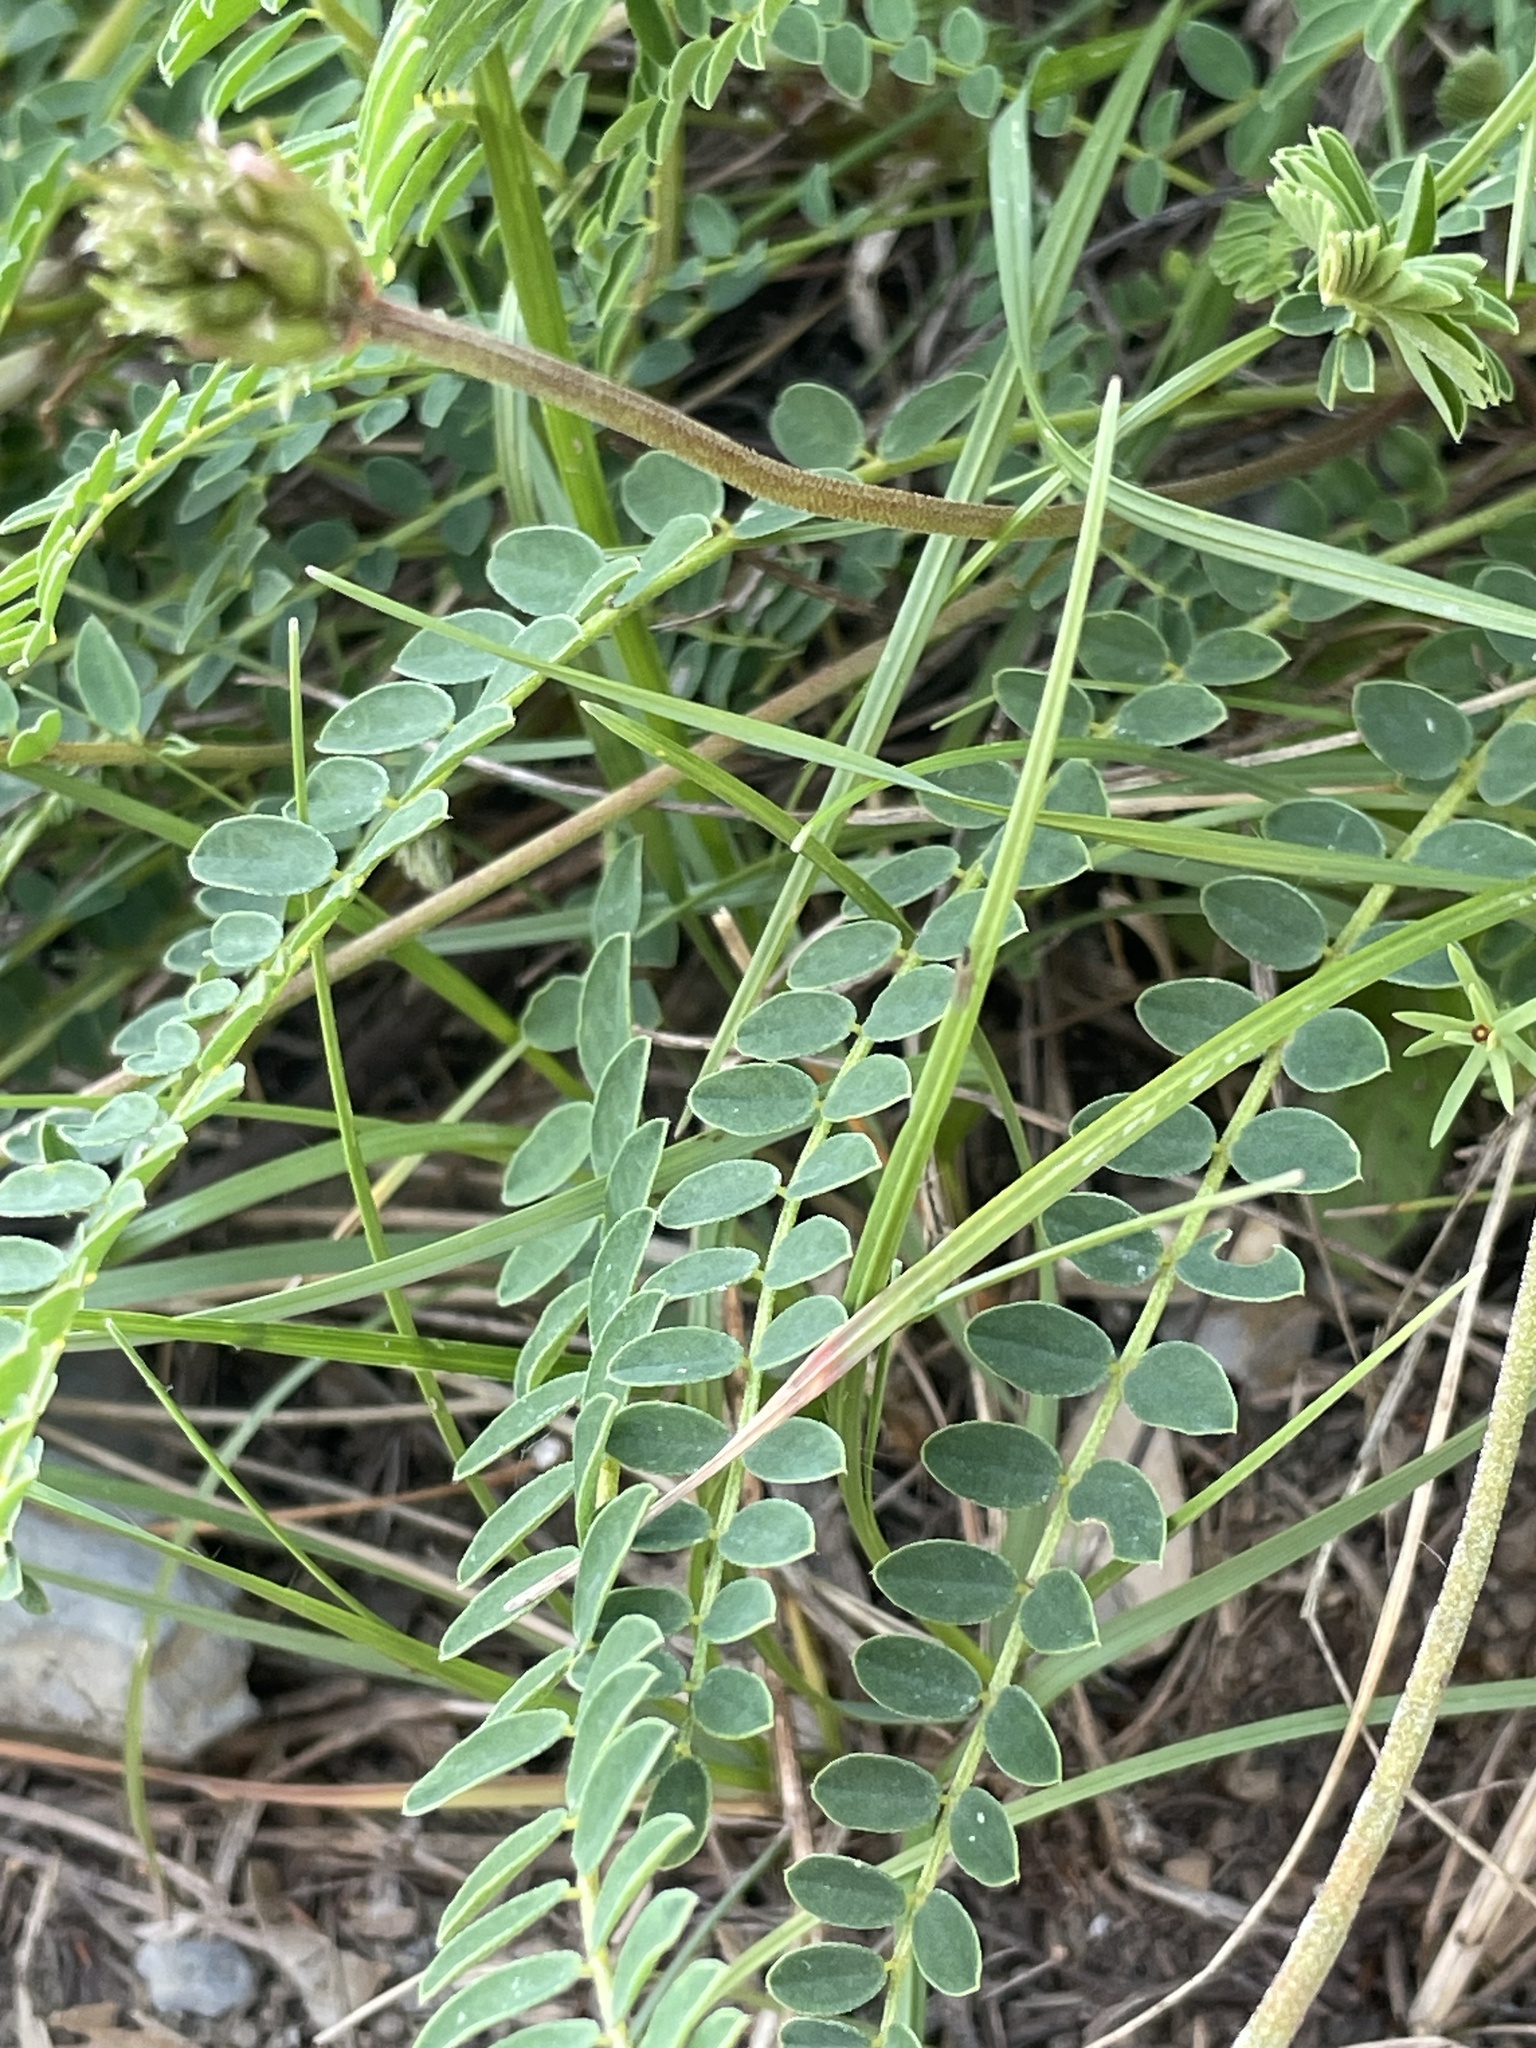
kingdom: Plantae
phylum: Tracheophyta
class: Magnoliopsida
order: Fabales
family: Fabaceae
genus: Astragalus
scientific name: Astragalus monspessulanus
